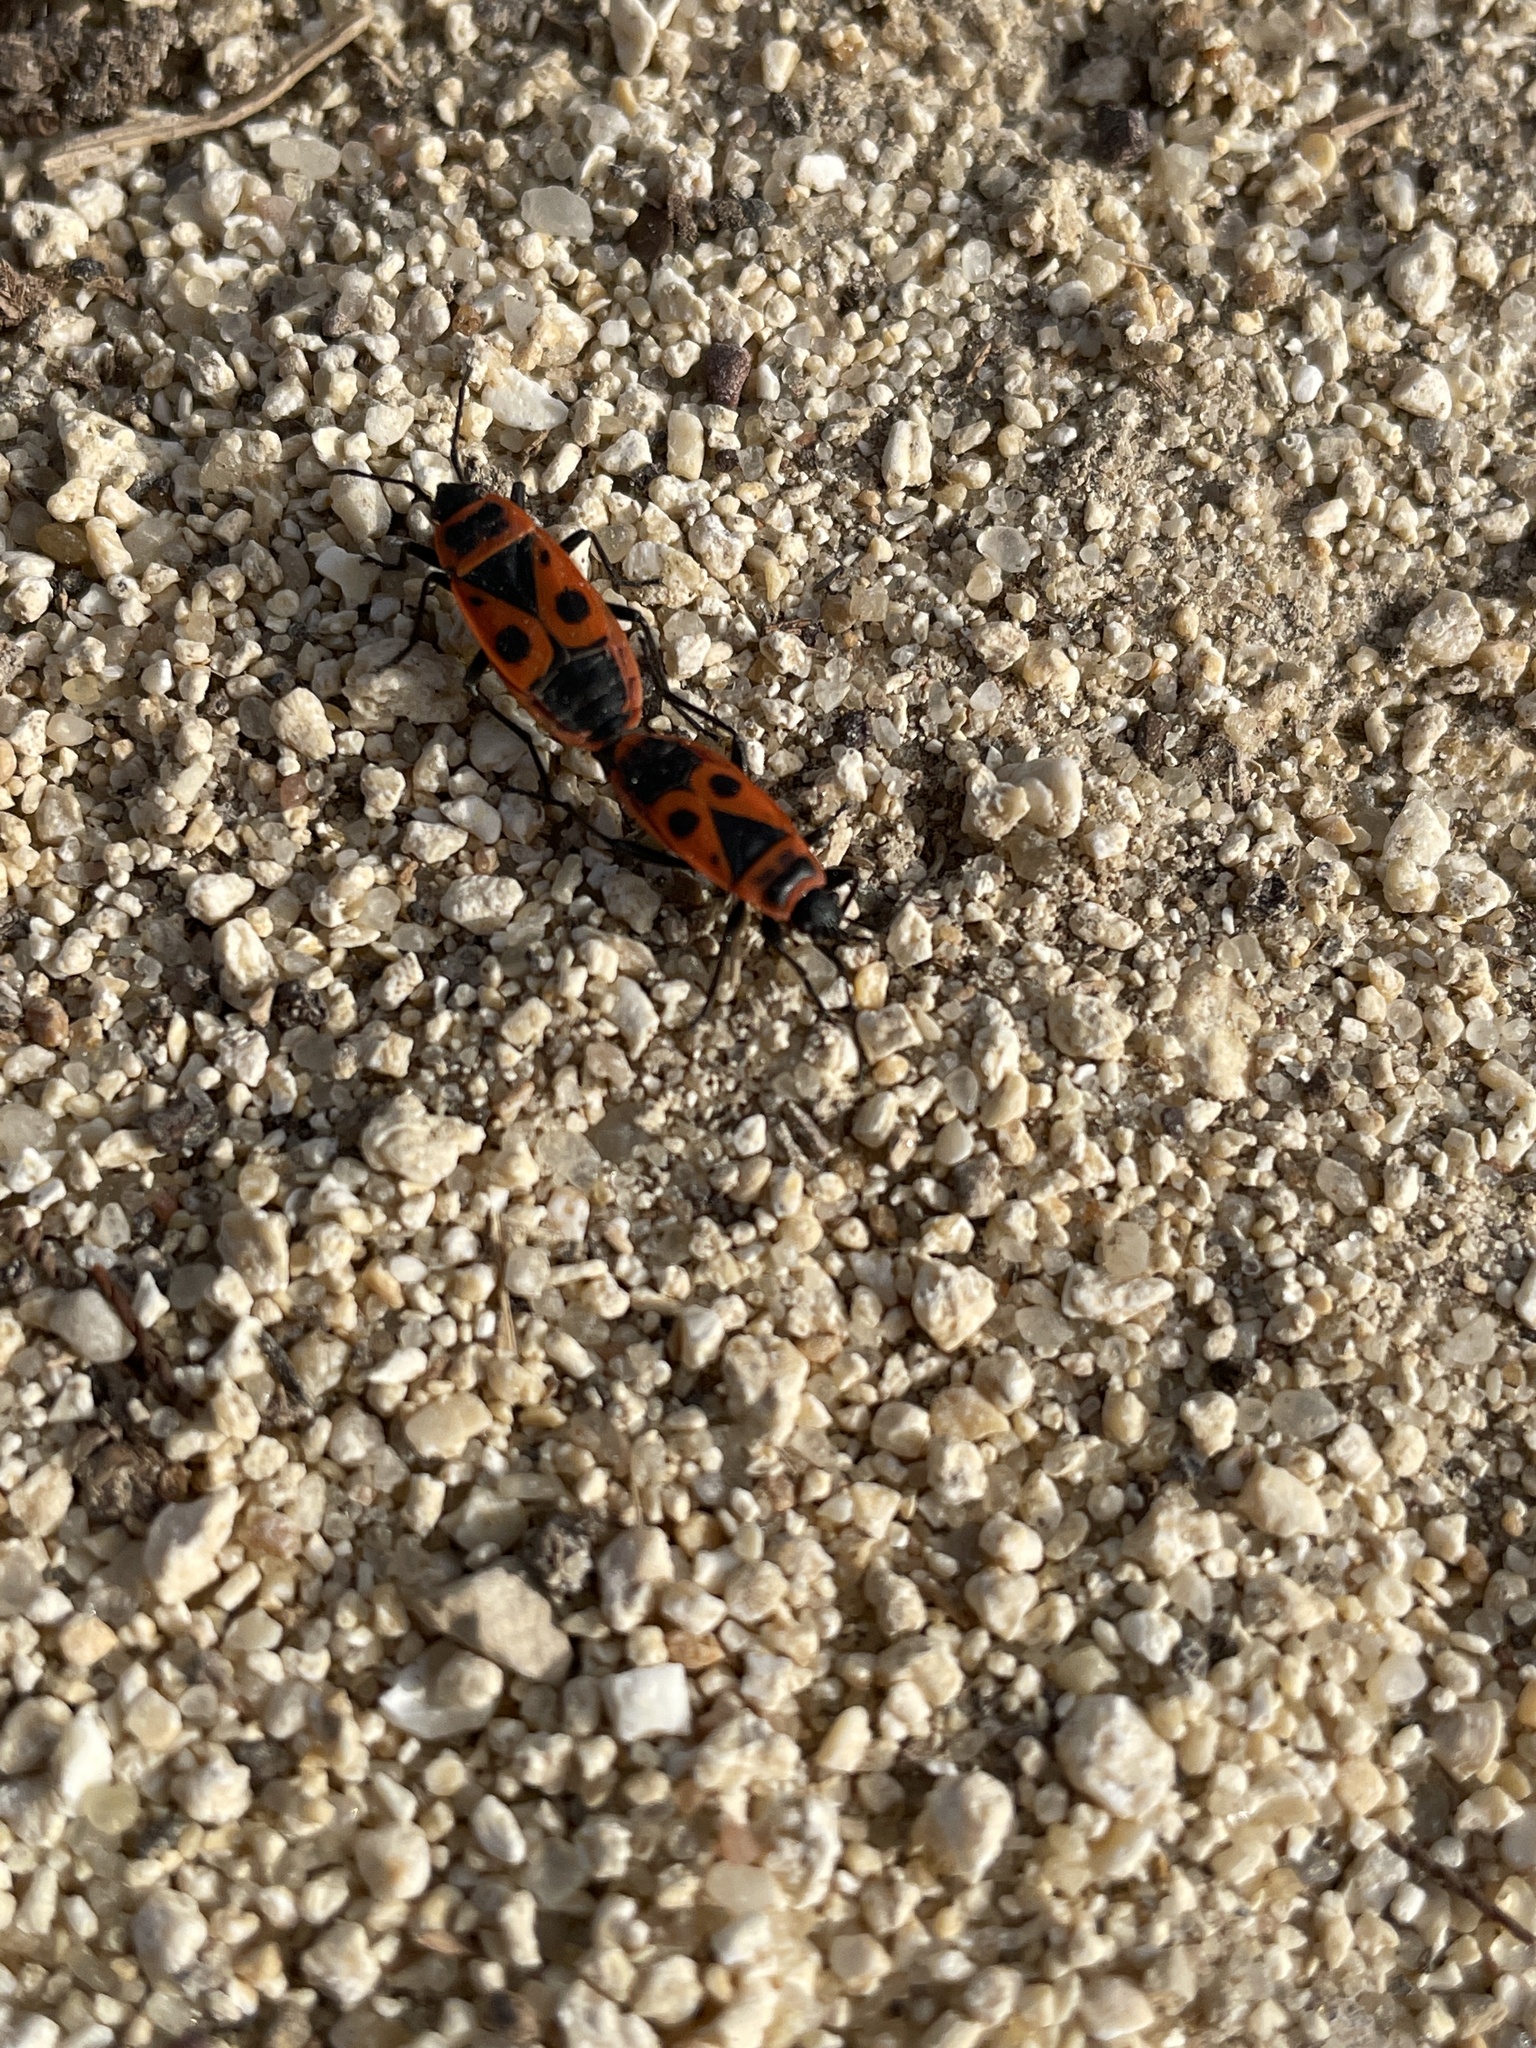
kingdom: Animalia
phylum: Arthropoda
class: Insecta
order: Hemiptera
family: Pyrrhocoridae
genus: Pyrrhocoris
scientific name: Pyrrhocoris apterus
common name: Firebug
